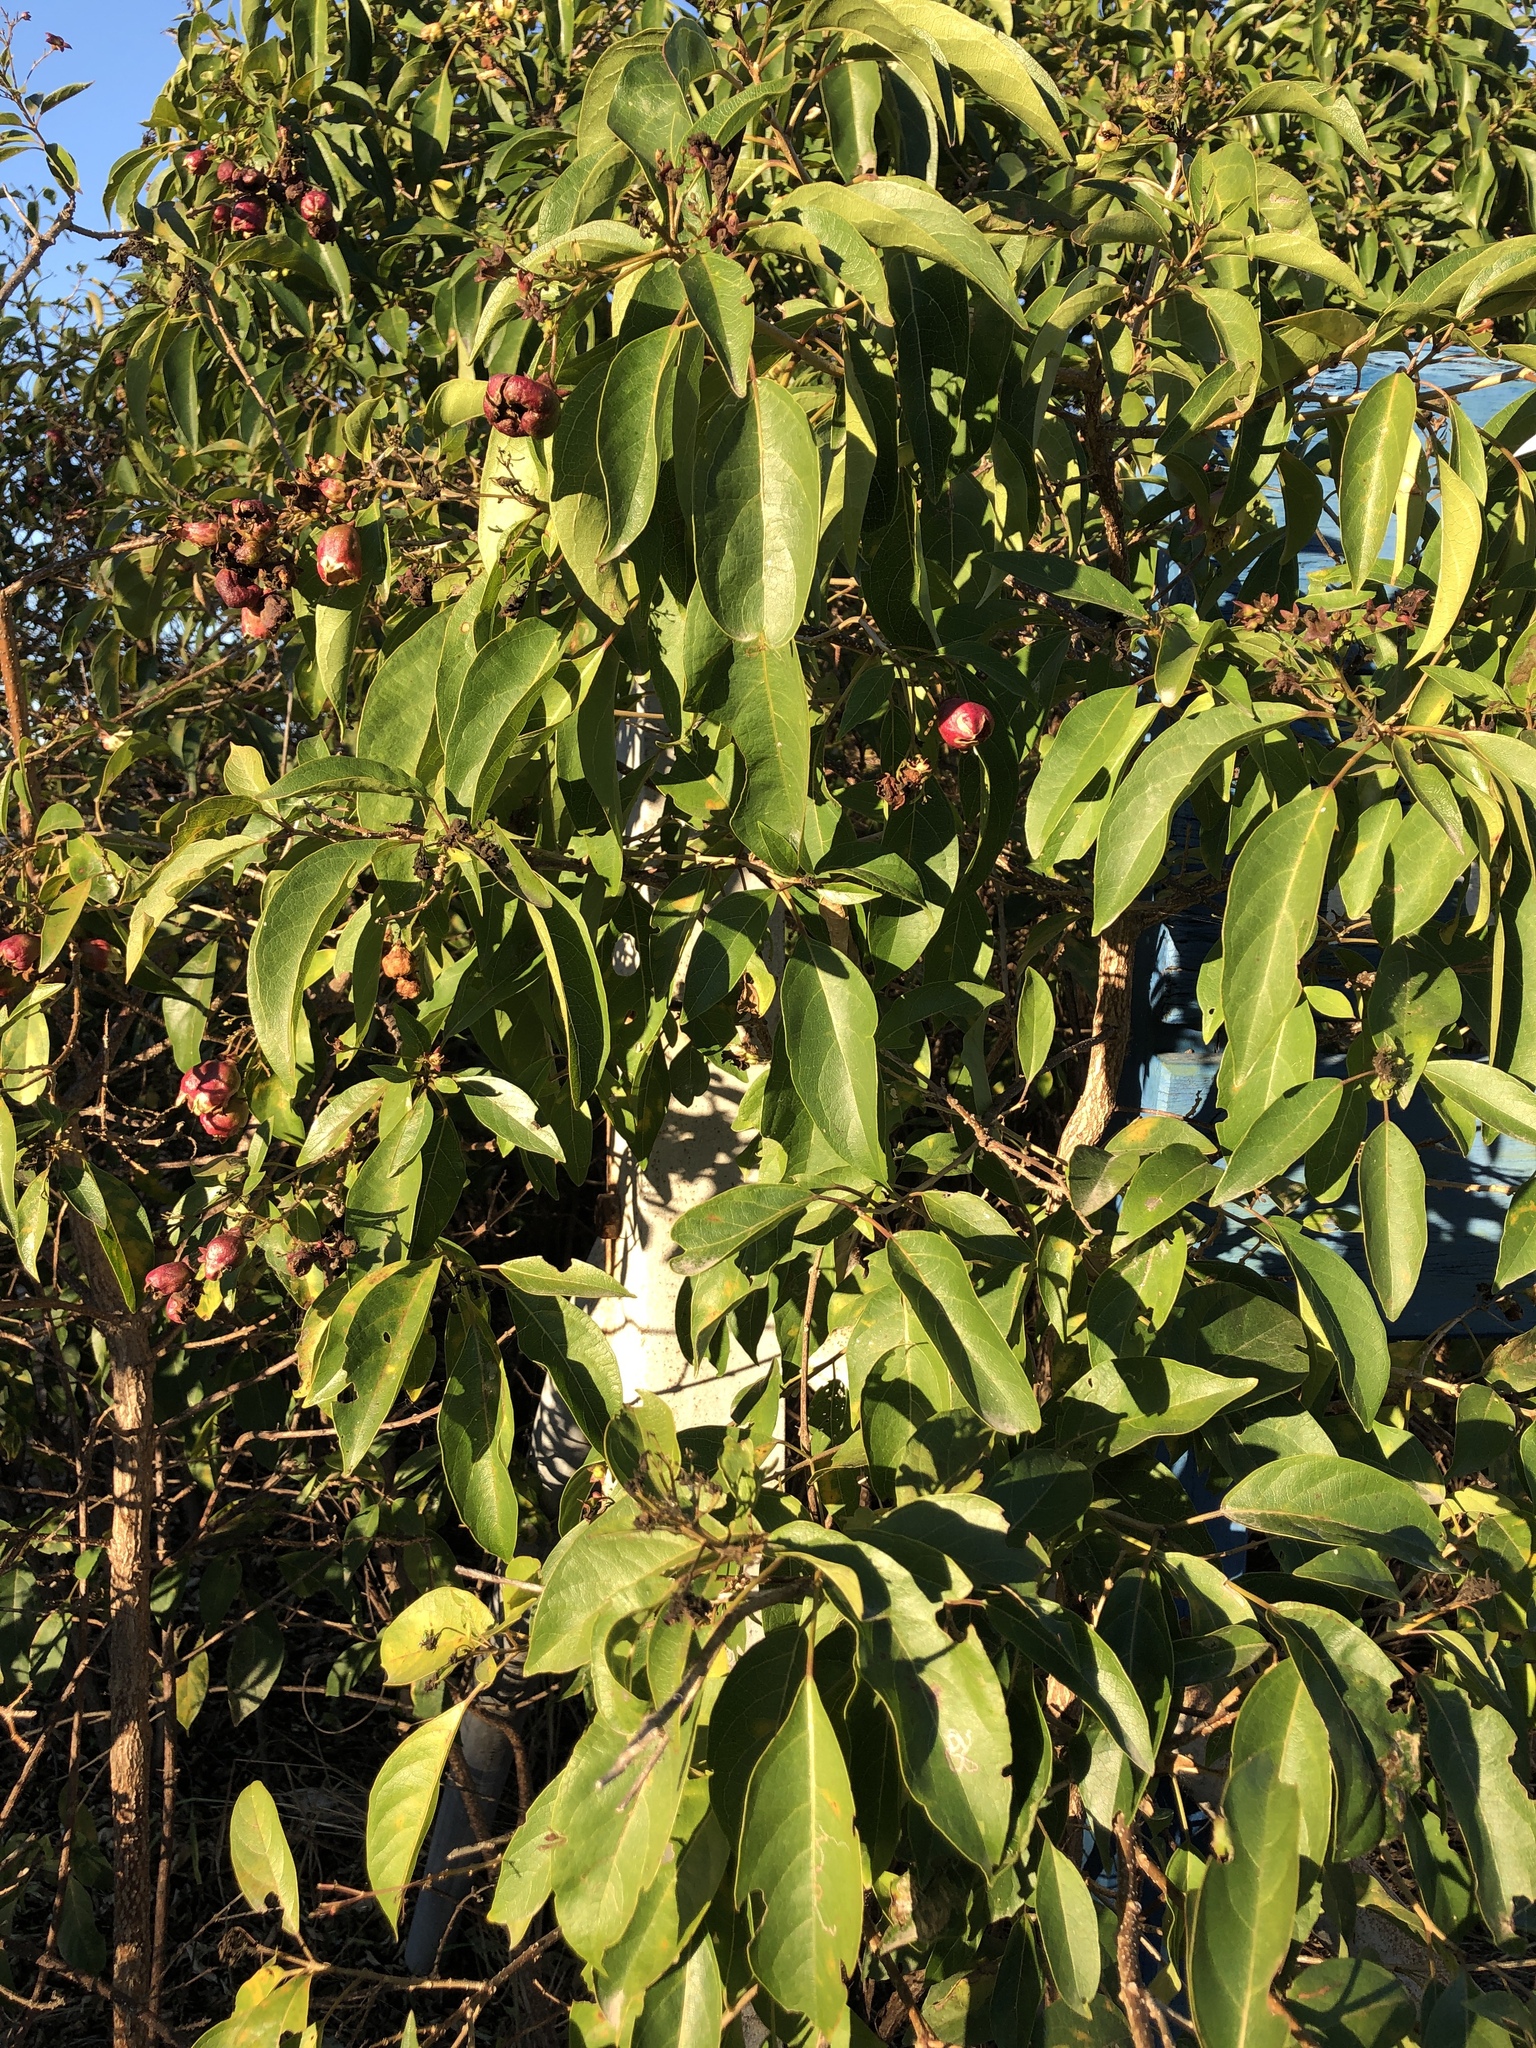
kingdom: Plantae
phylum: Tracheophyta
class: Magnoliopsida
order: Lamiales
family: Lamiaceae
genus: Clerodendrum
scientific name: Clerodendrum floribundum
